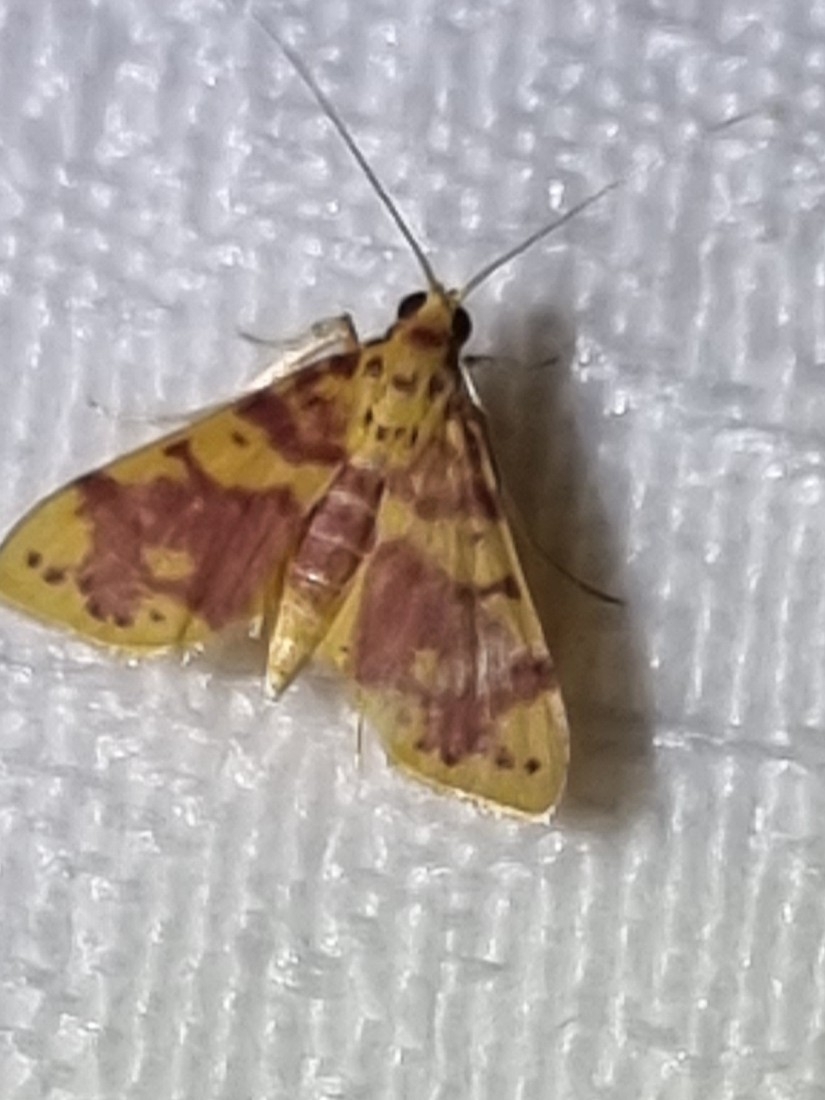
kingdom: Animalia
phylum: Arthropoda
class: Insecta
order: Lepidoptera
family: Crambidae
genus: Conogethes
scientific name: Conogethes haemactalis
